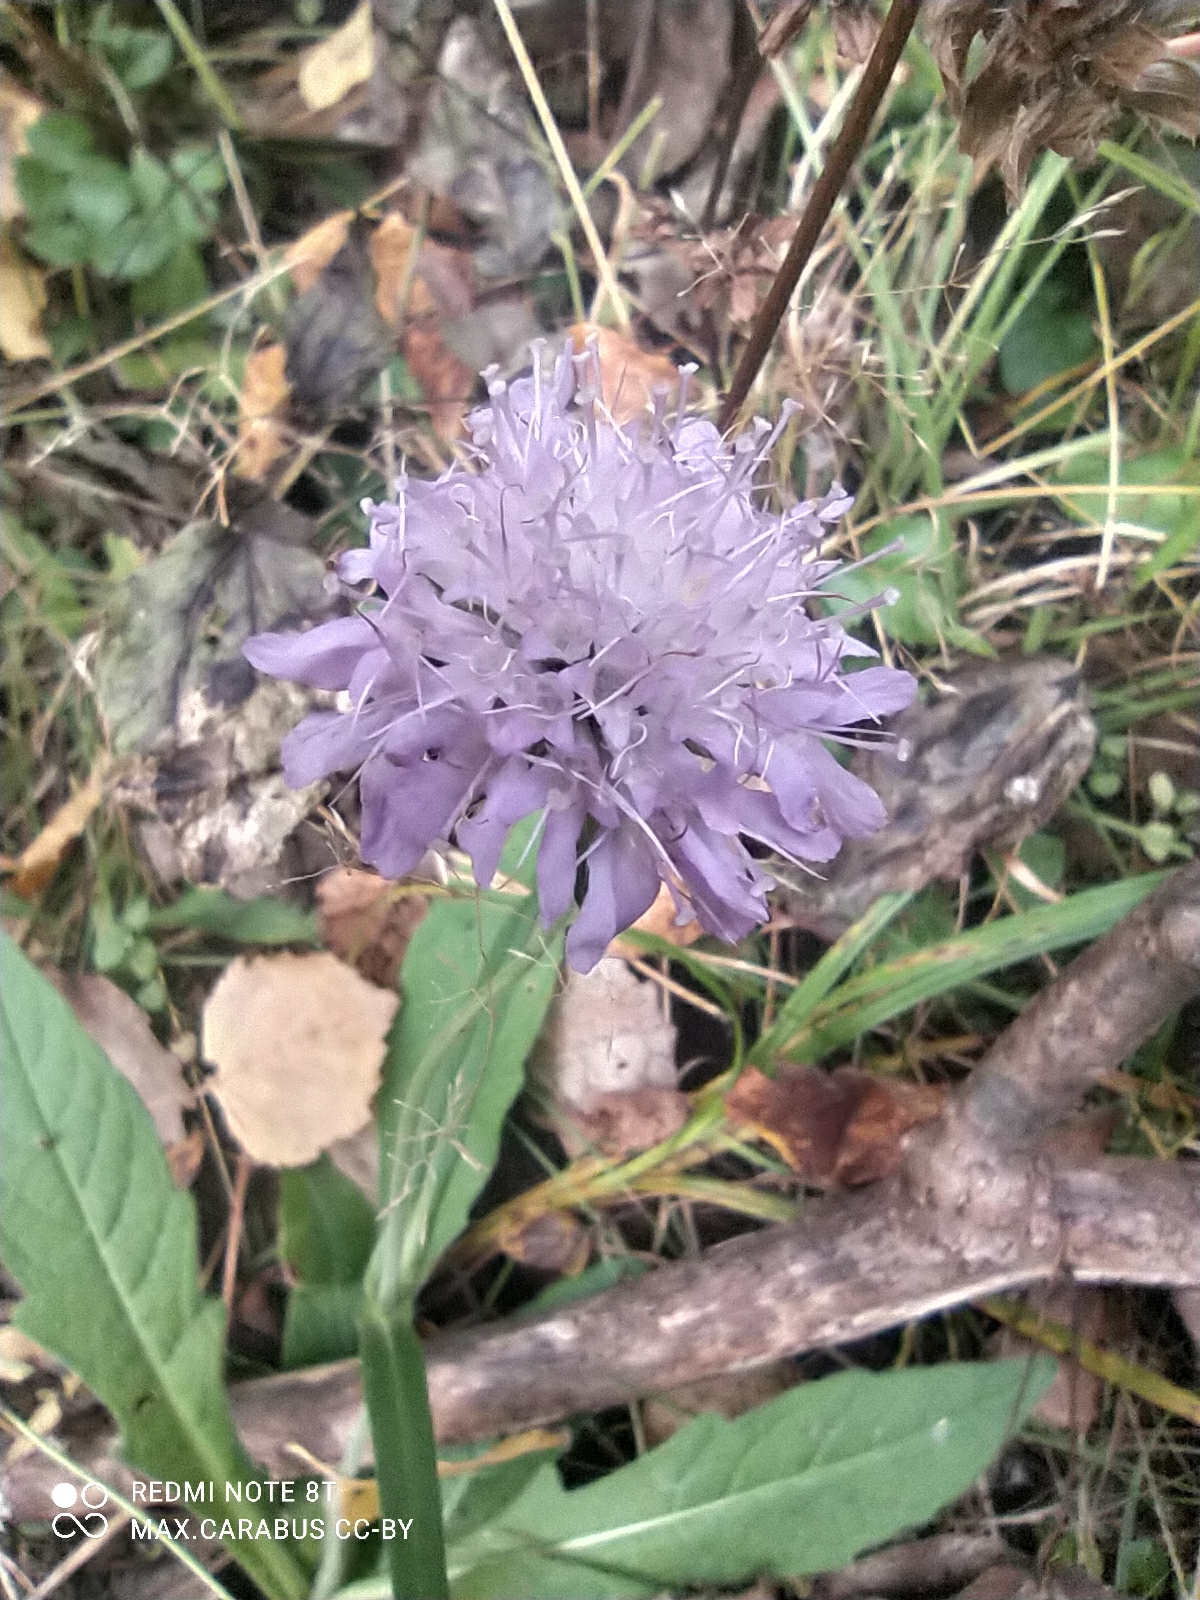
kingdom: Plantae
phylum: Tracheophyta
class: Magnoliopsida
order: Dipsacales
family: Caprifoliaceae
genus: Knautia
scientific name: Knautia arvensis
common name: Field scabiosa
